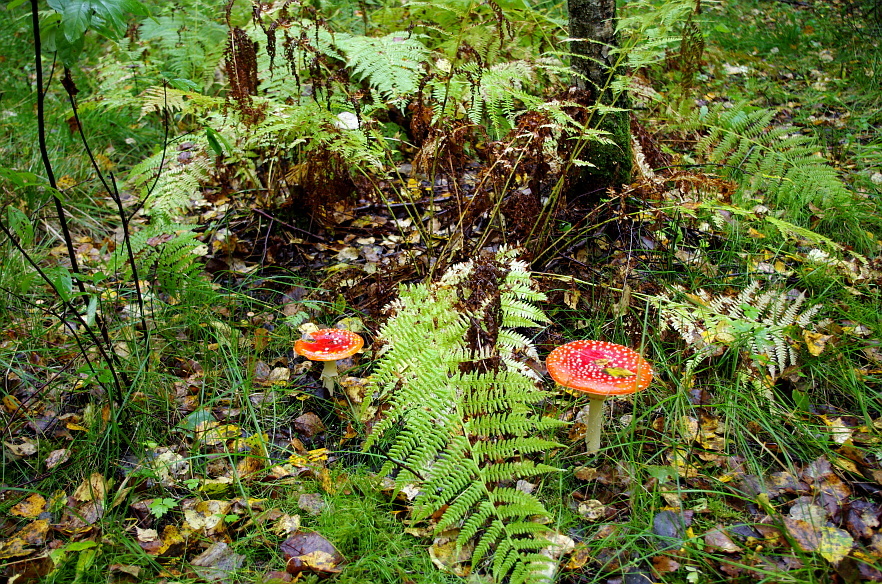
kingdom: Plantae
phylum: Tracheophyta
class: Polypodiopsida
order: Polypodiales
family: Athyriaceae
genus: Athyrium
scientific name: Athyrium filix-femina
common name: Lady fern
